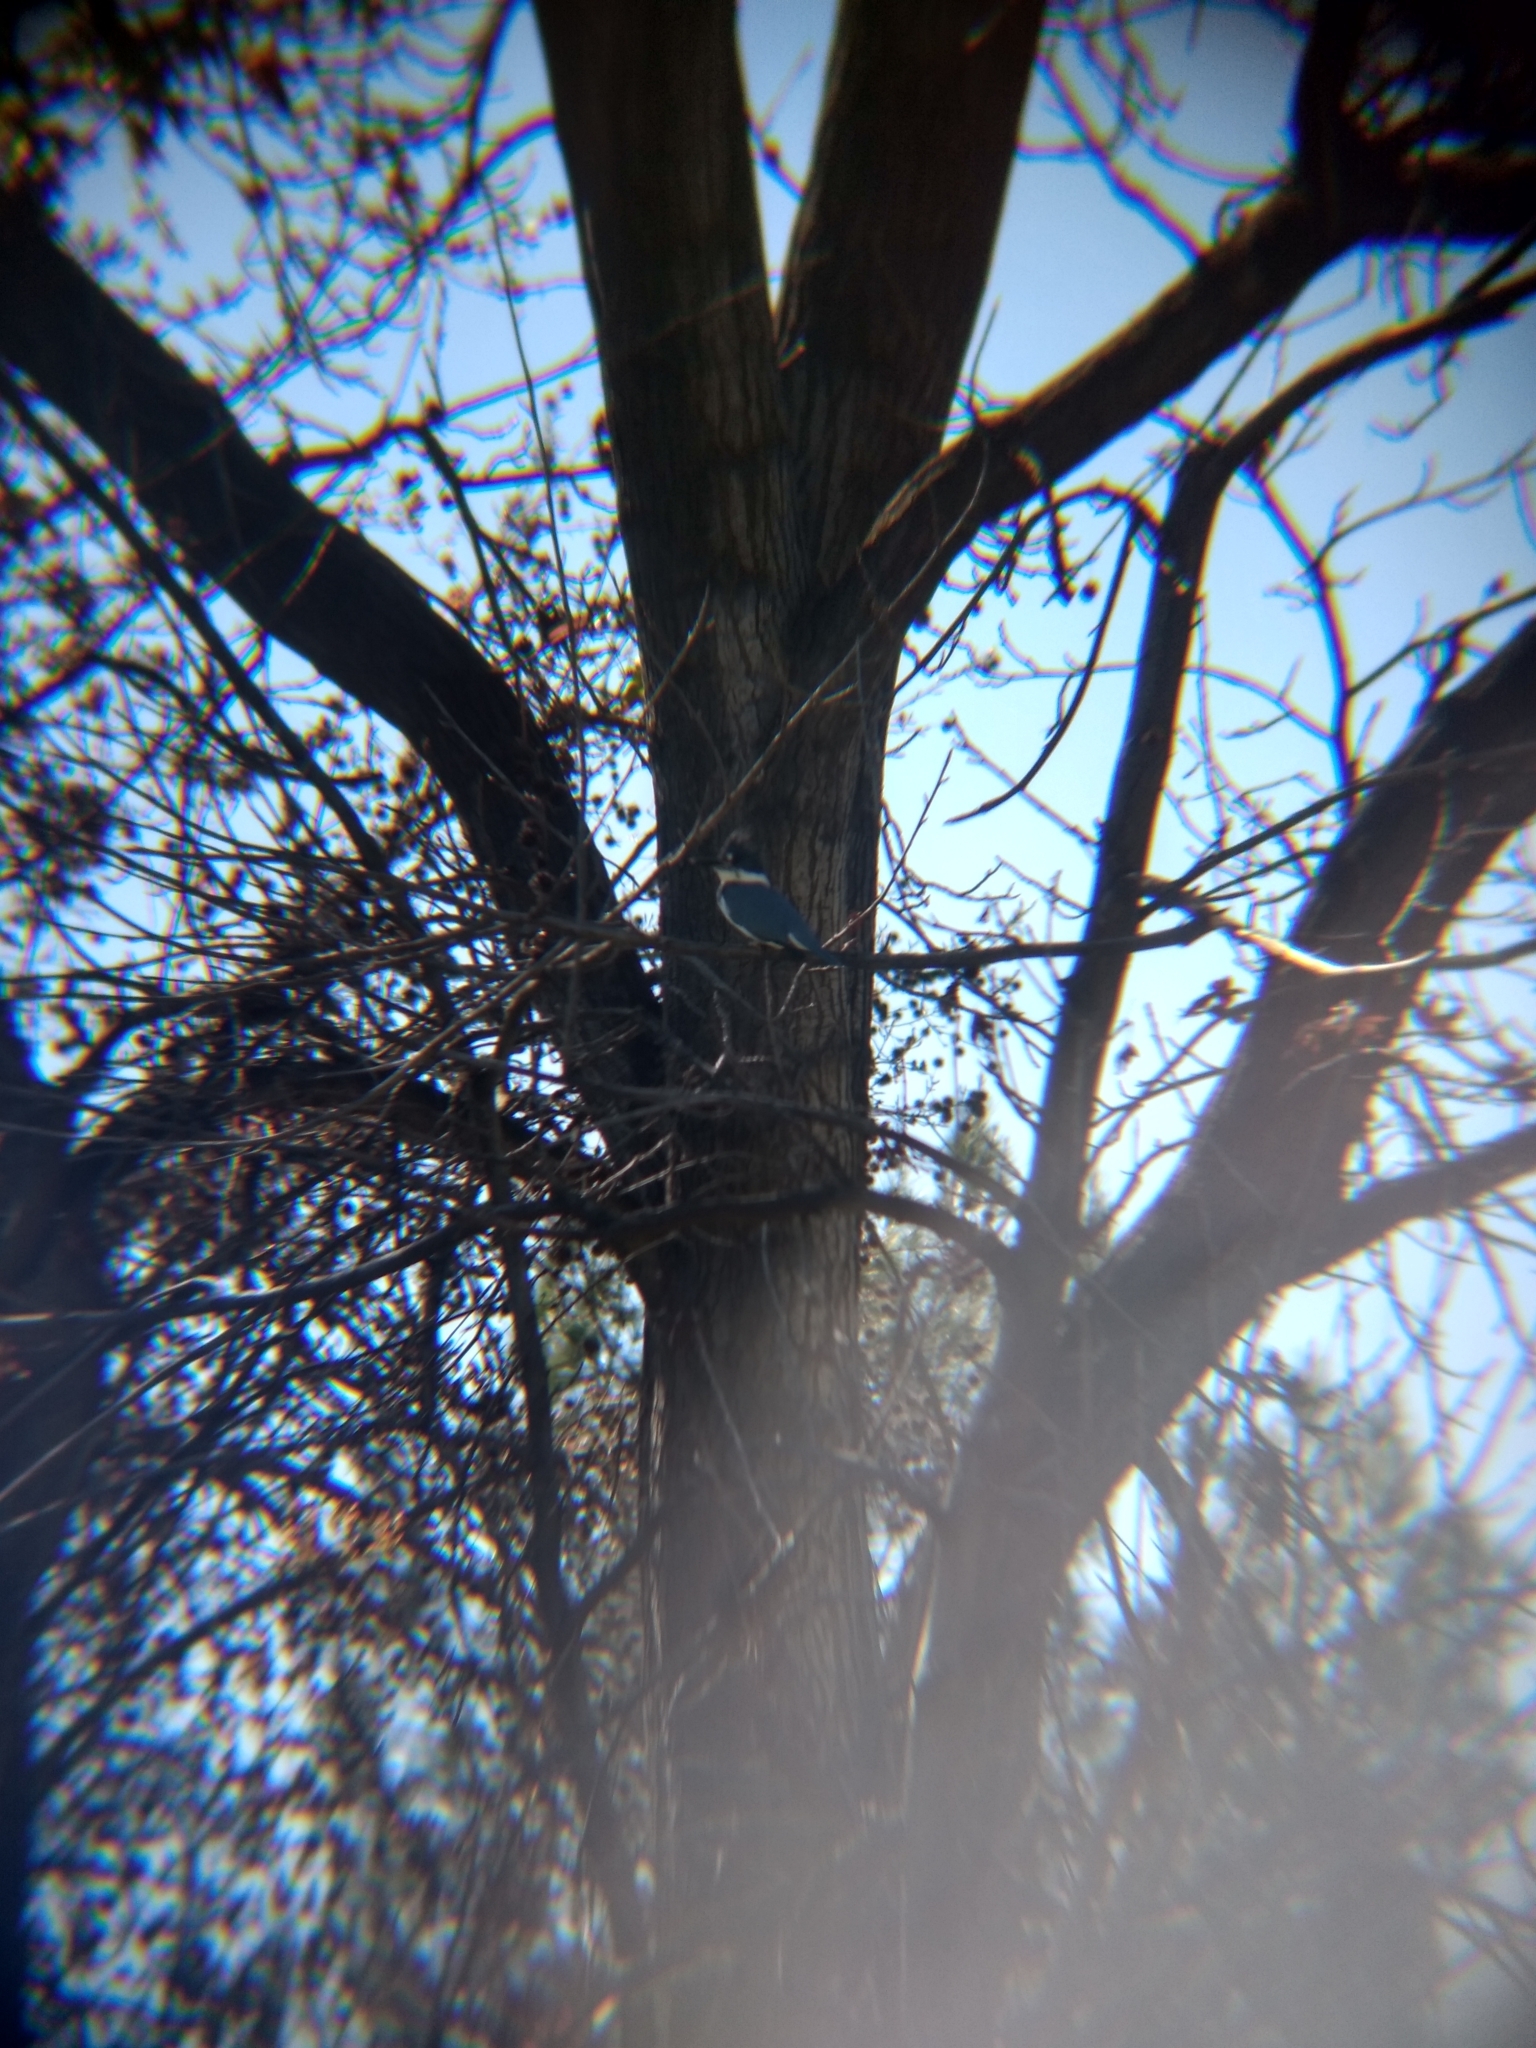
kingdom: Animalia
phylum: Chordata
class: Aves
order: Coraciiformes
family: Alcedinidae
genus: Megaceryle
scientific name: Megaceryle alcyon
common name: Belted kingfisher
